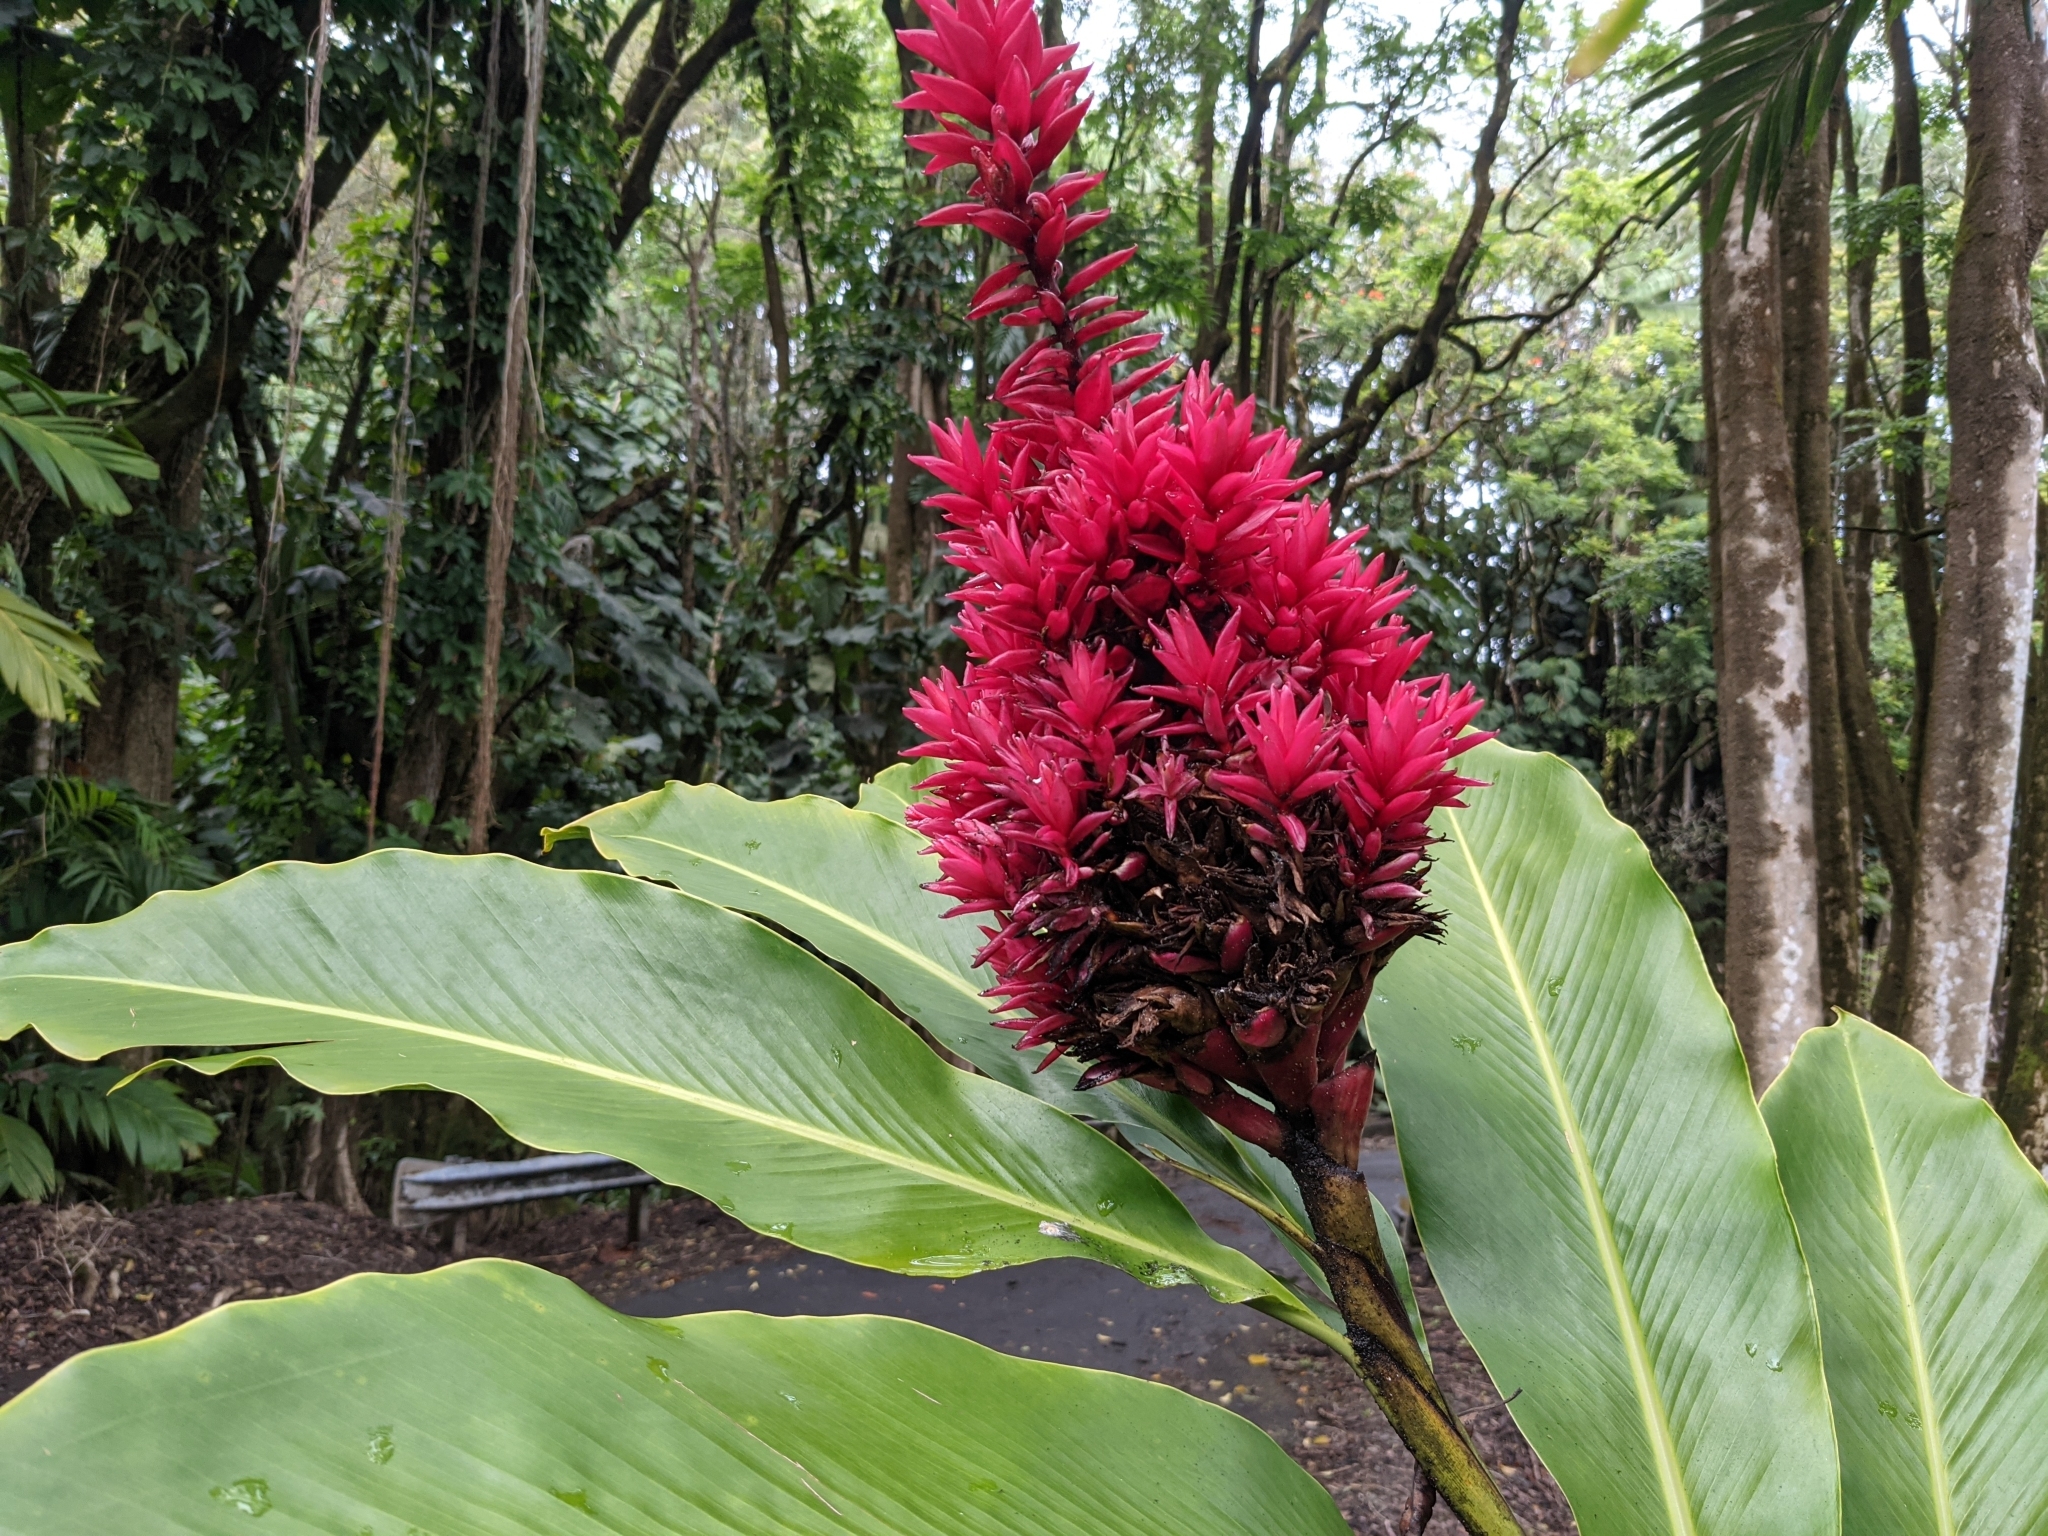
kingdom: Plantae
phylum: Tracheophyta
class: Liliopsida
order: Zingiberales
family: Zingiberaceae
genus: Alpinia
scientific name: Alpinia purpurata
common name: Red ginger
